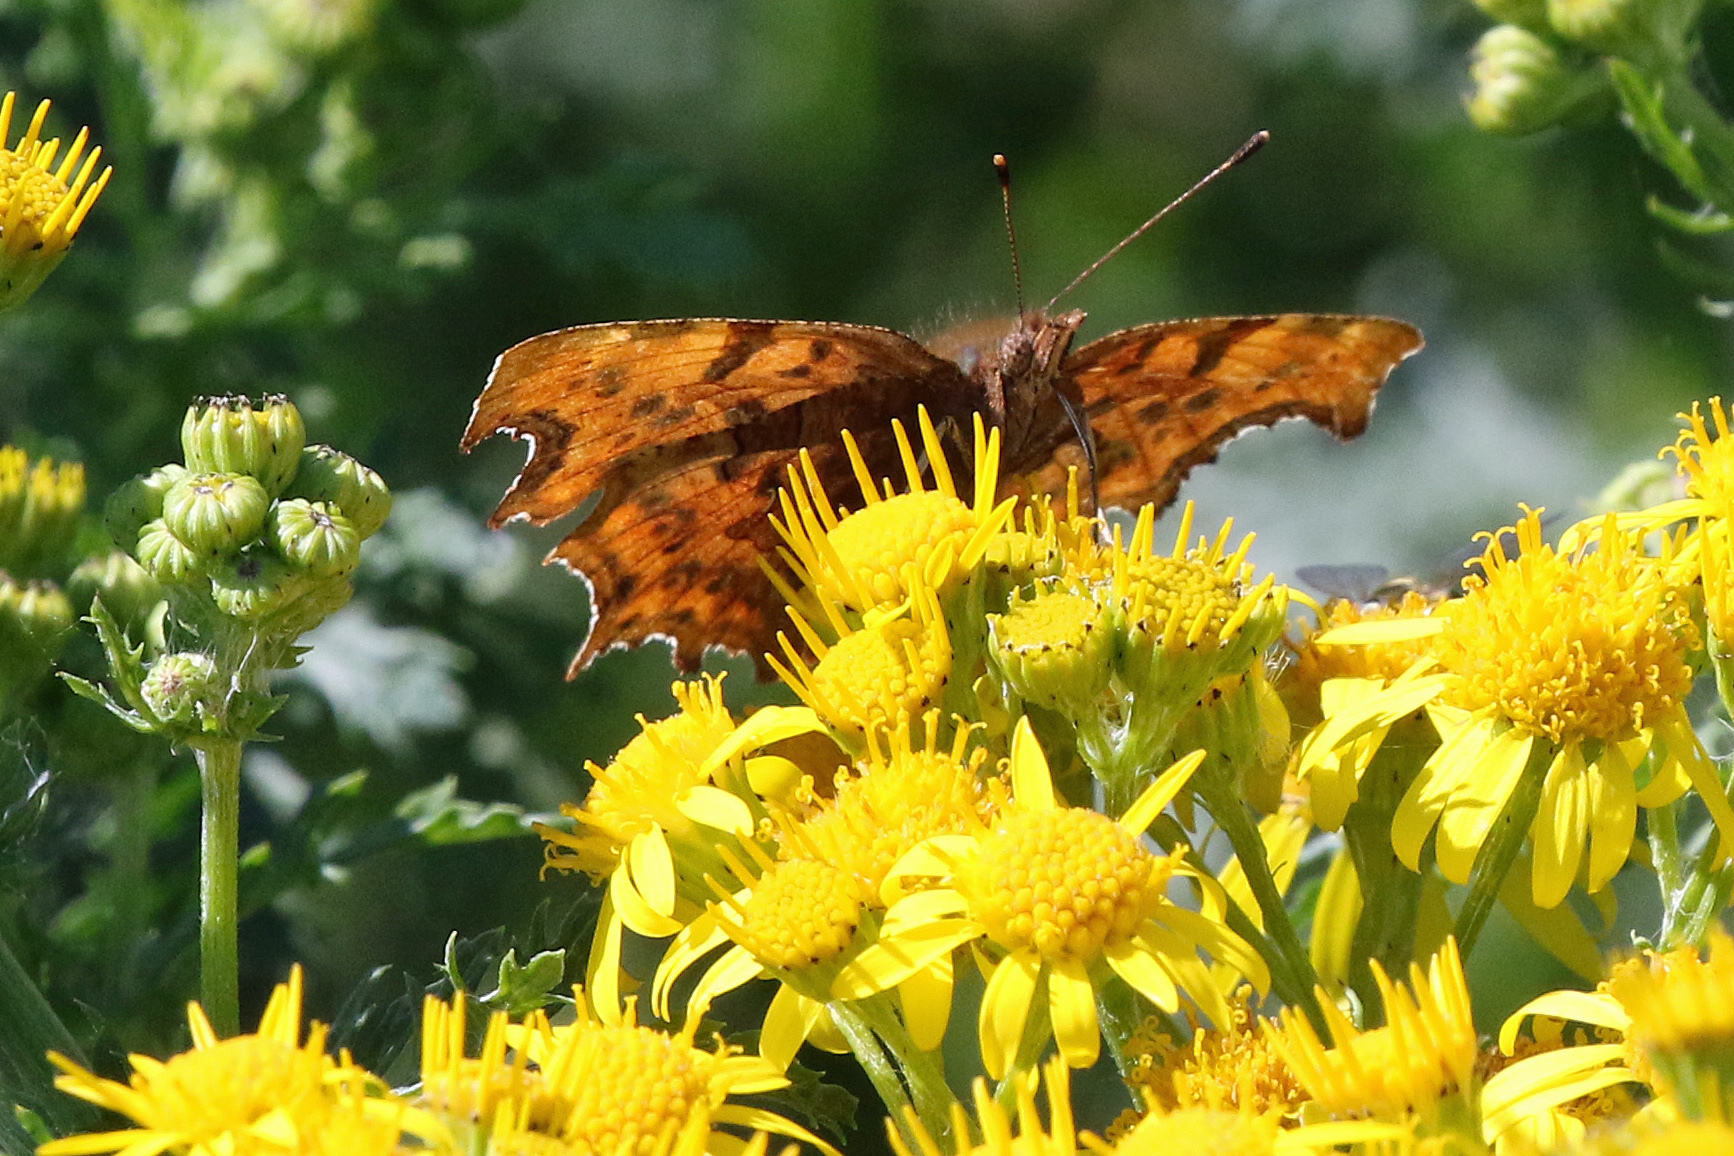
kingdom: Animalia
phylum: Arthropoda
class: Insecta
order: Lepidoptera
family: Nymphalidae
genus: Polygonia
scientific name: Polygonia c-album
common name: Comma
